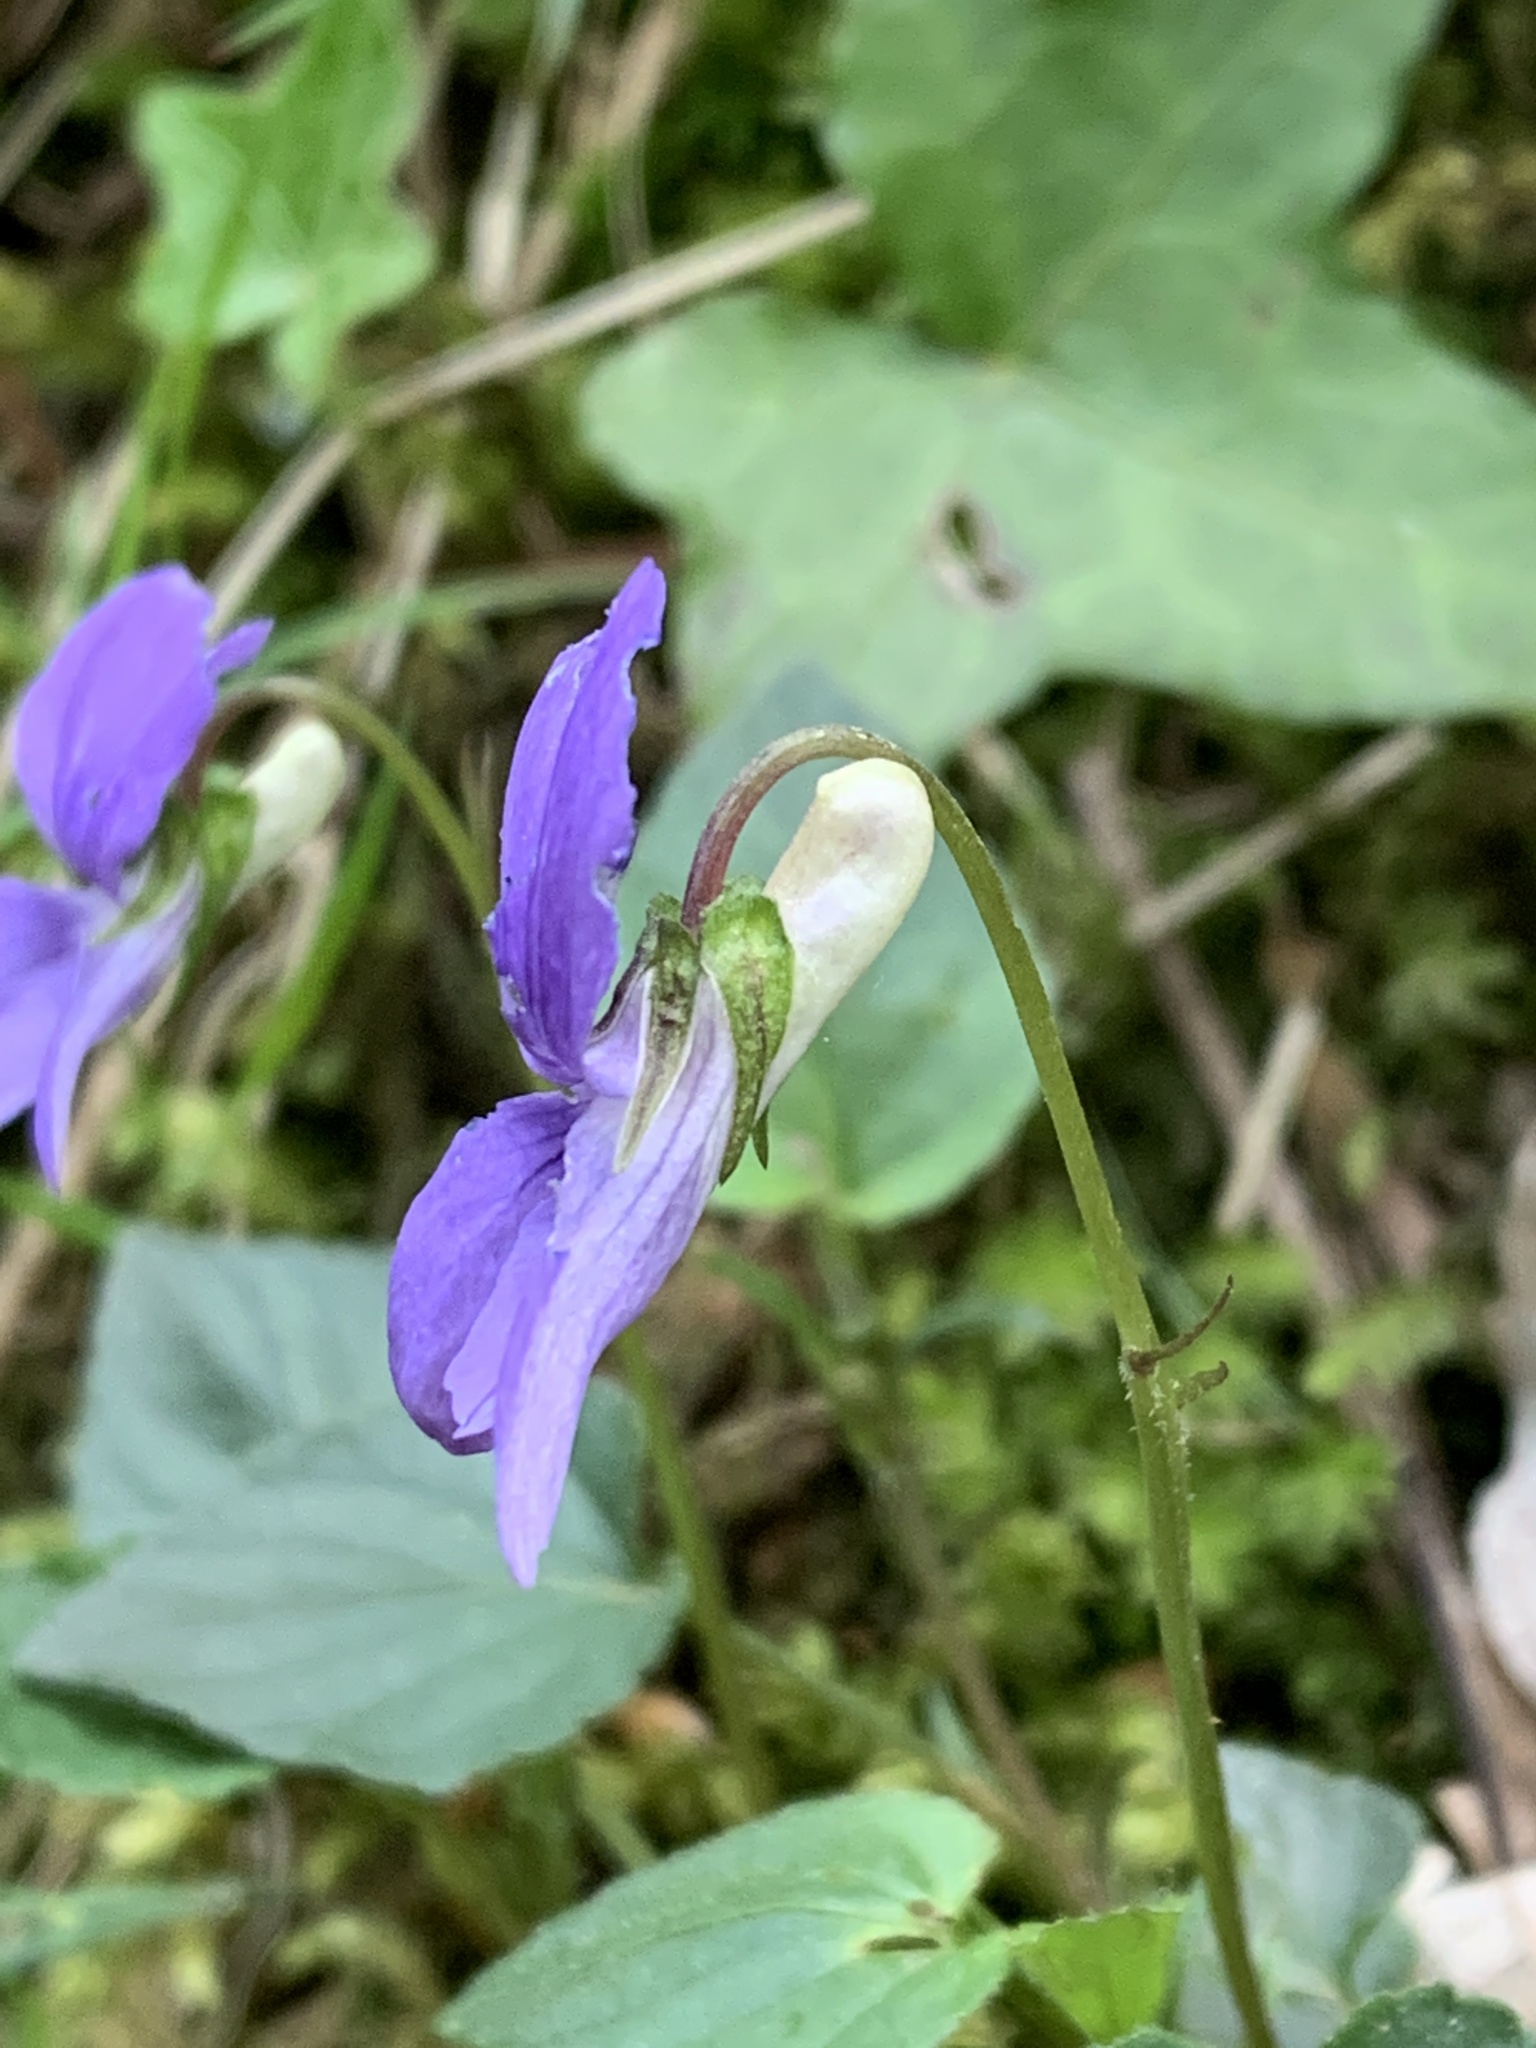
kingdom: Plantae
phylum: Tracheophyta
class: Magnoliopsida
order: Malpighiales
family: Violaceae
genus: Viola
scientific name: Viola riviniana
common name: Common dog-violet
